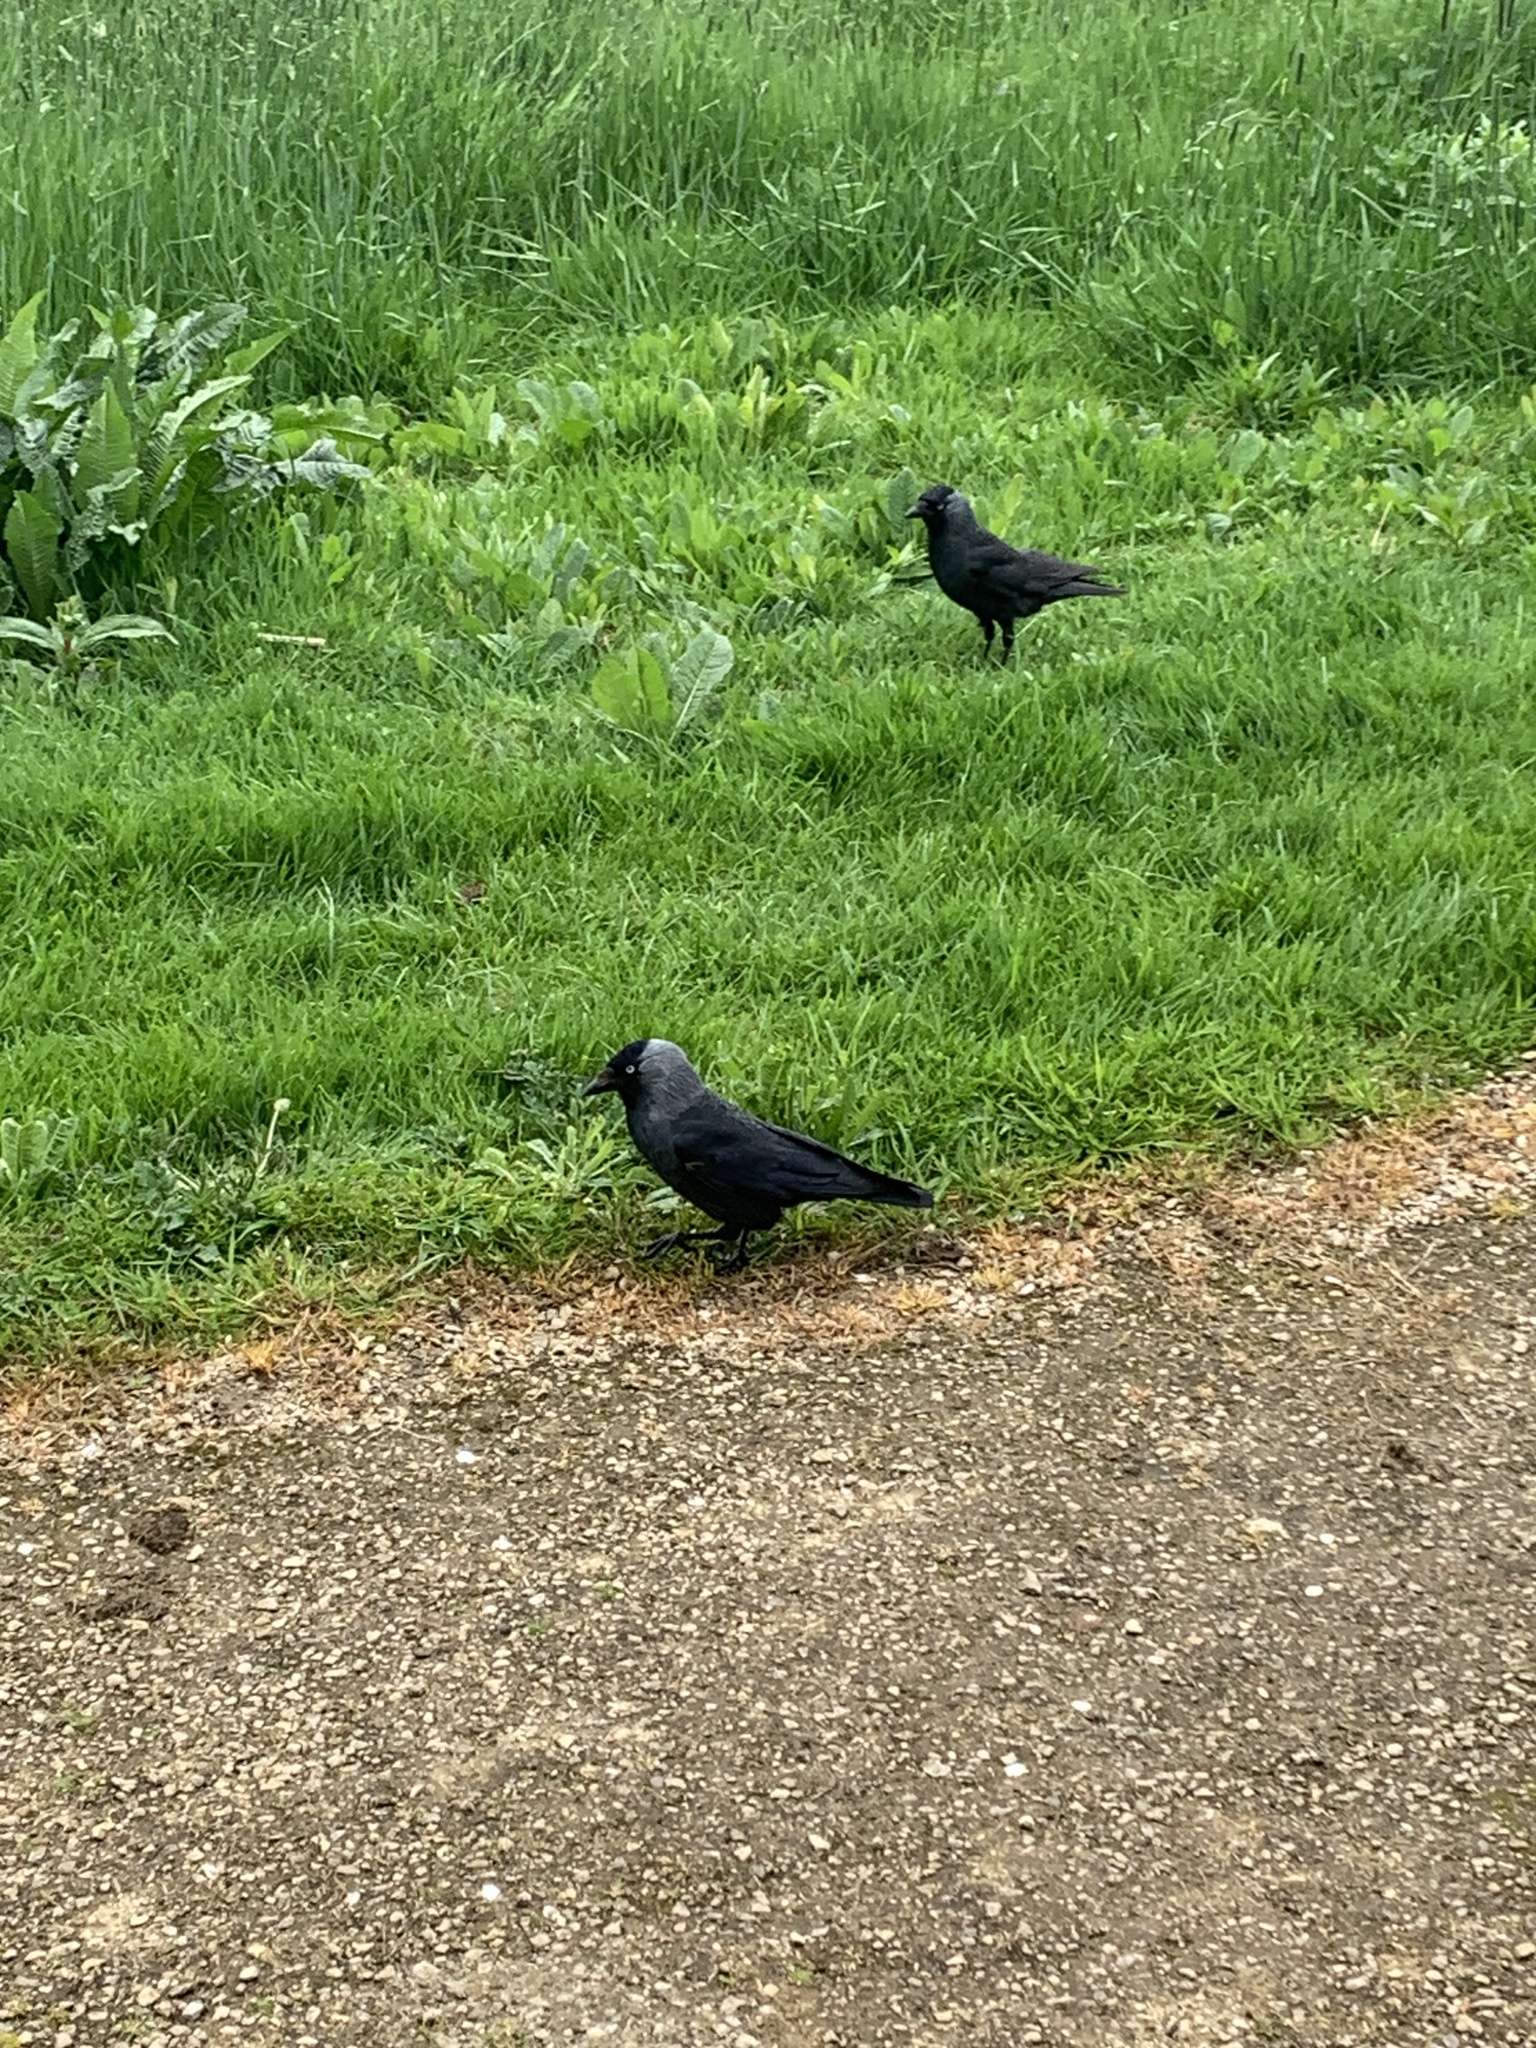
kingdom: Animalia
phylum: Chordata
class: Aves
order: Passeriformes
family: Corvidae
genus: Coloeus
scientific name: Coloeus monedula
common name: Western jackdaw
